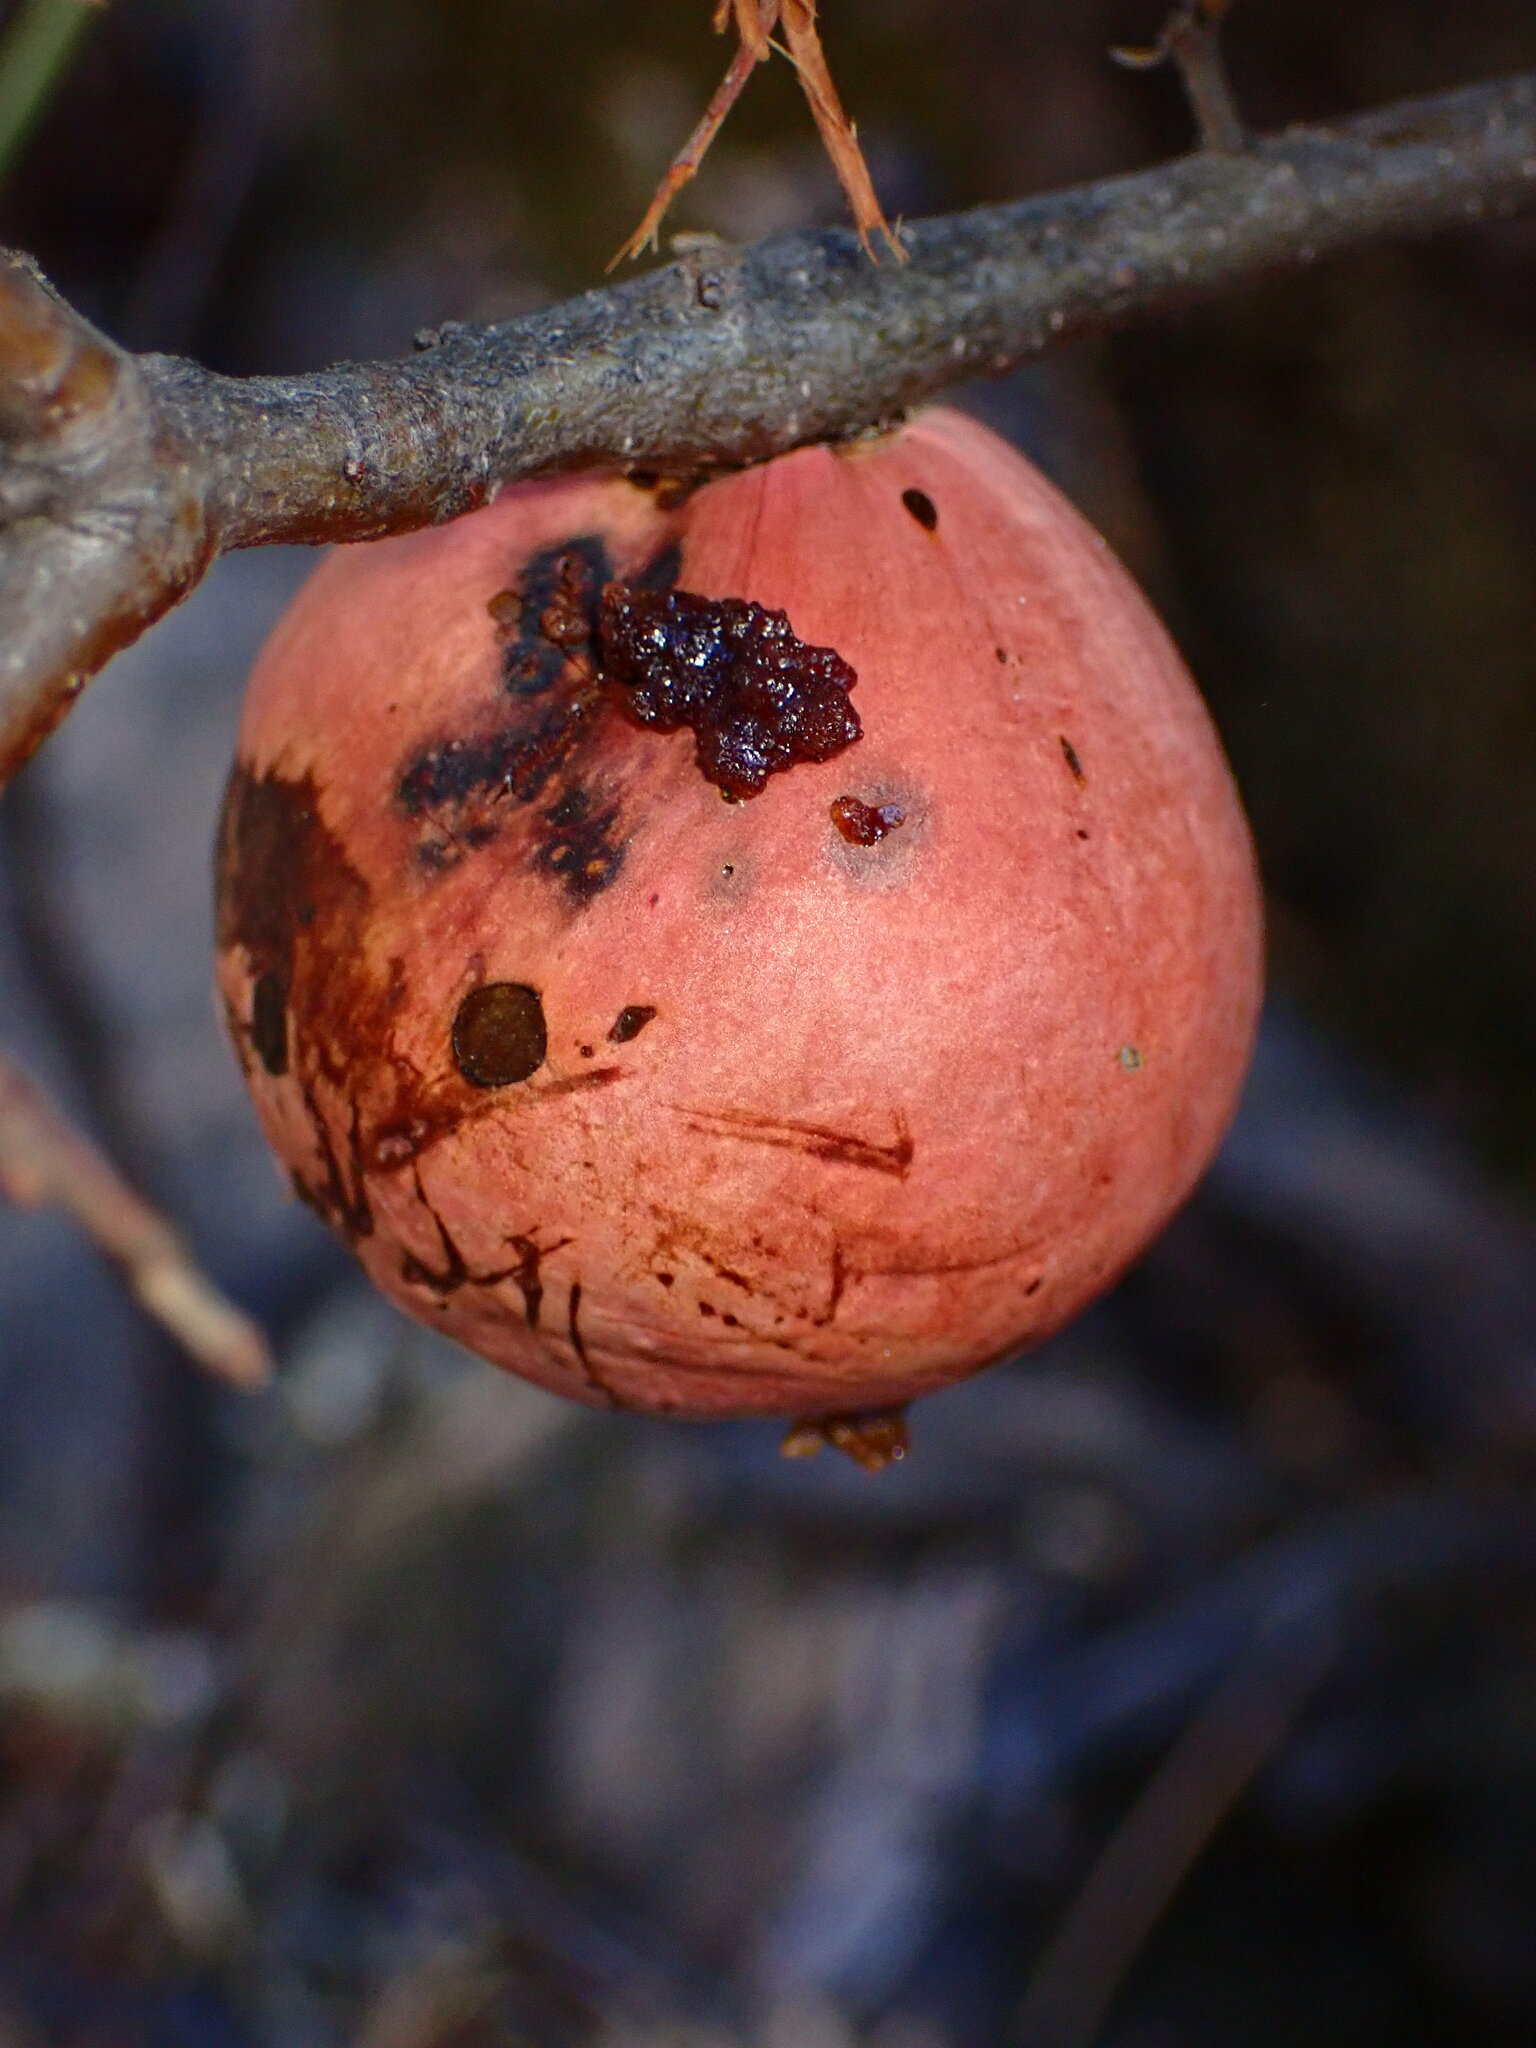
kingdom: Animalia
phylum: Arthropoda
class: Insecta
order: Hymenoptera
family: Cynipidae
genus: Andricus
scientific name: Andricus quercuscalifornicus
